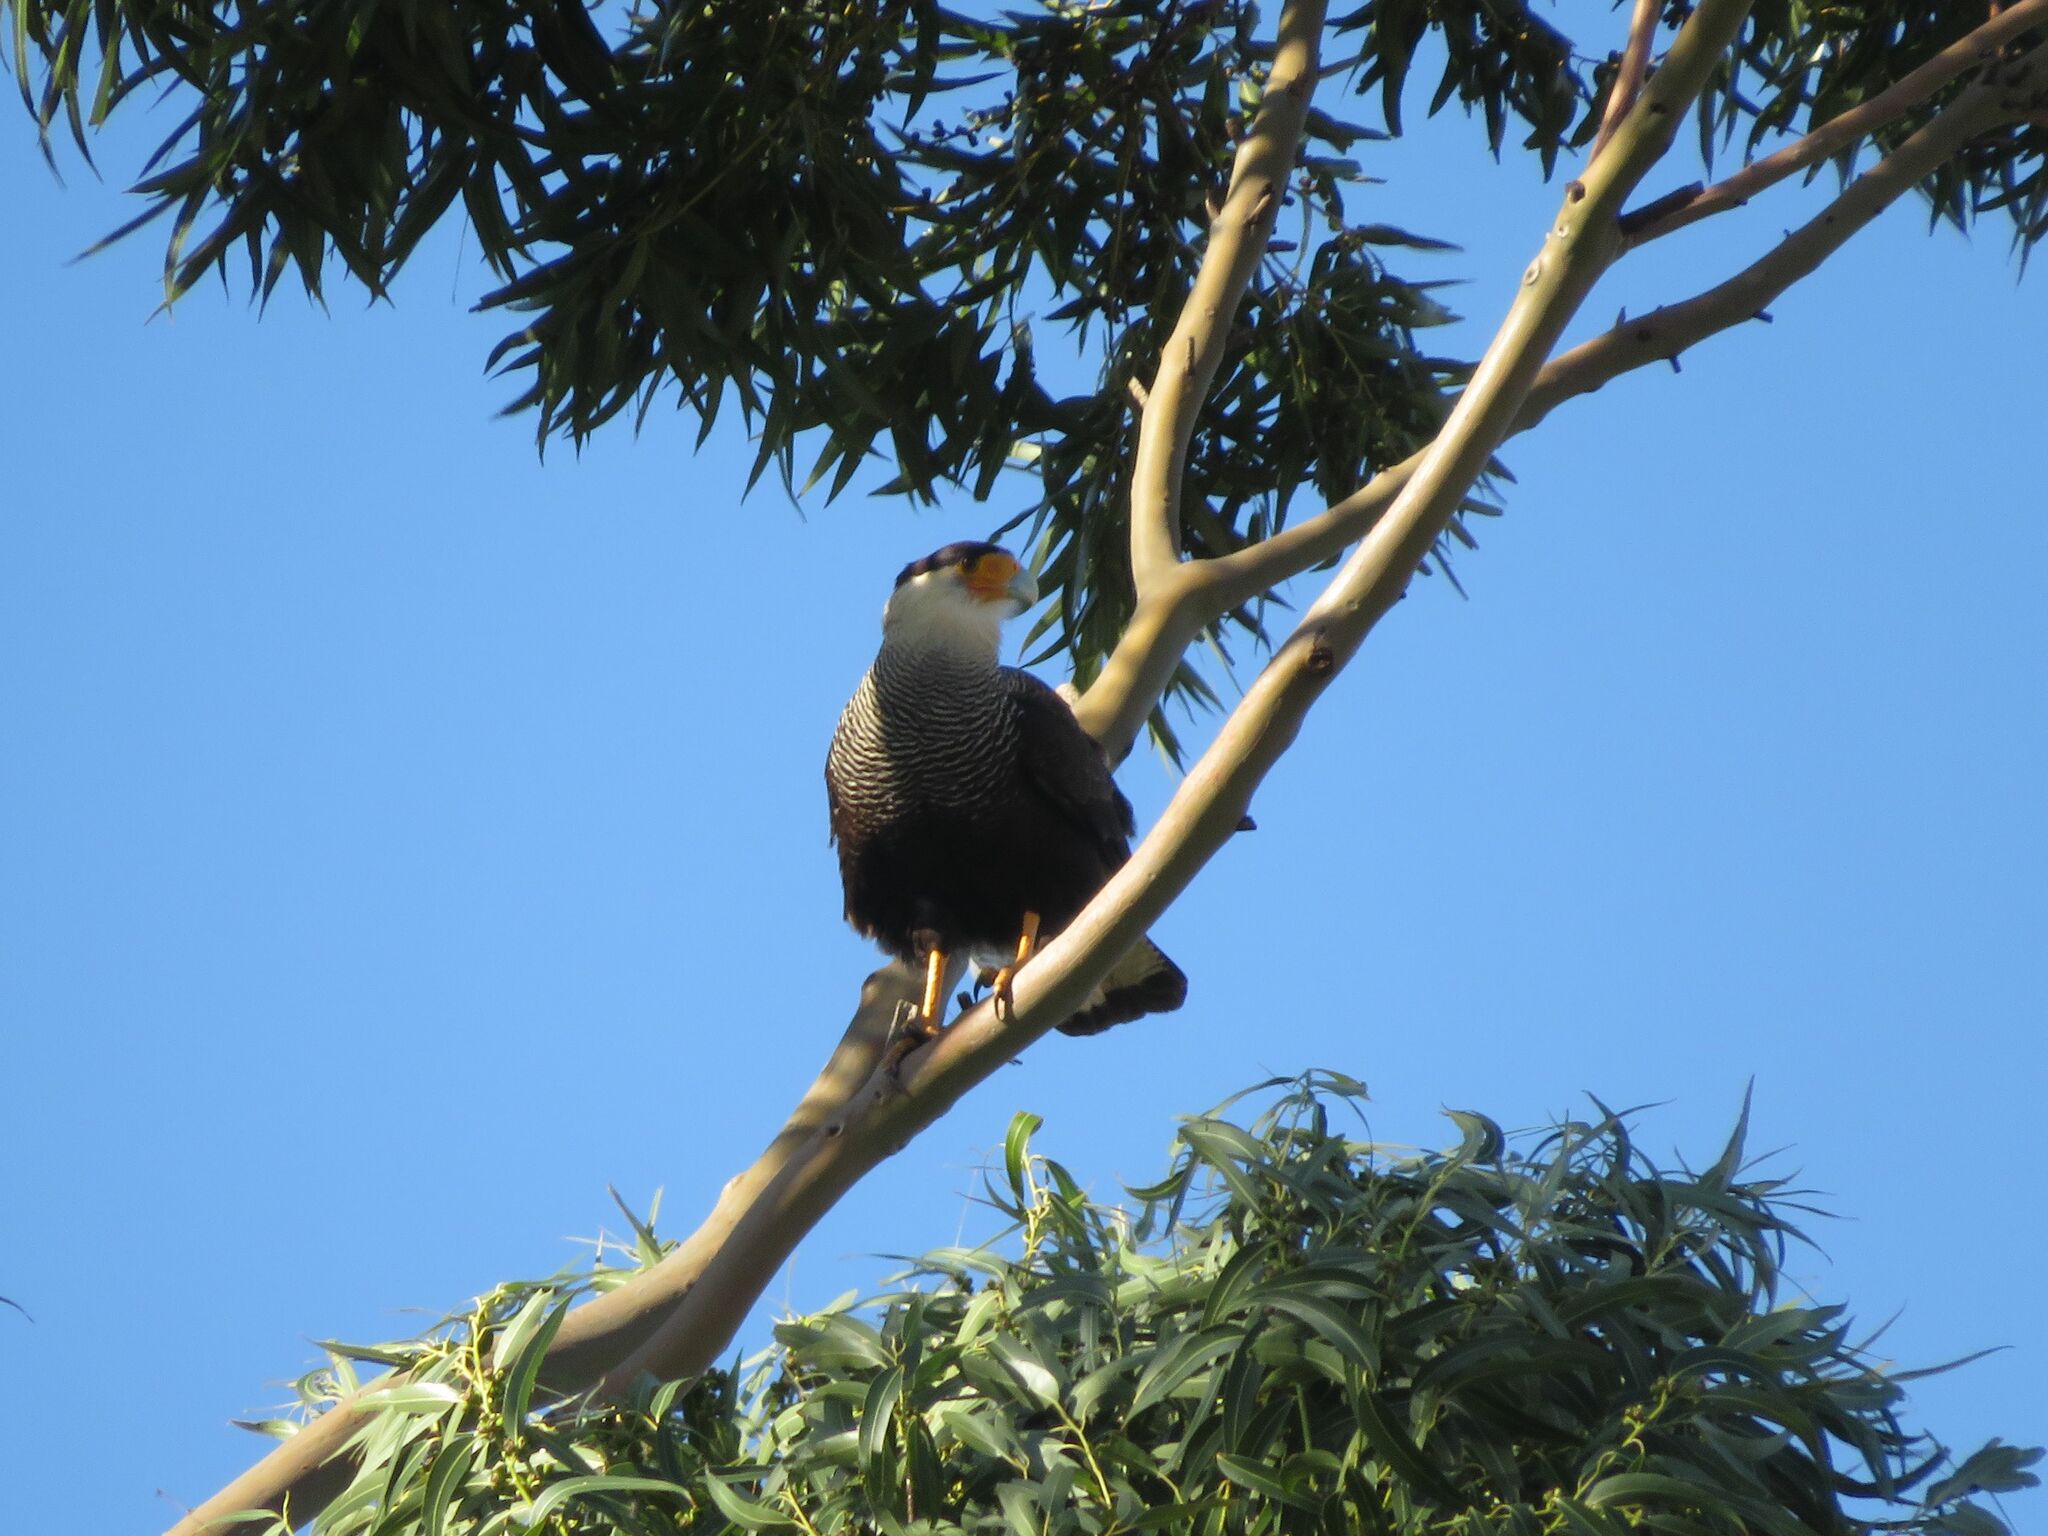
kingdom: Animalia
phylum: Chordata
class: Aves
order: Falconiformes
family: Falconidae
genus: Caracara
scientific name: Caracara plancus
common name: Southern caracara
